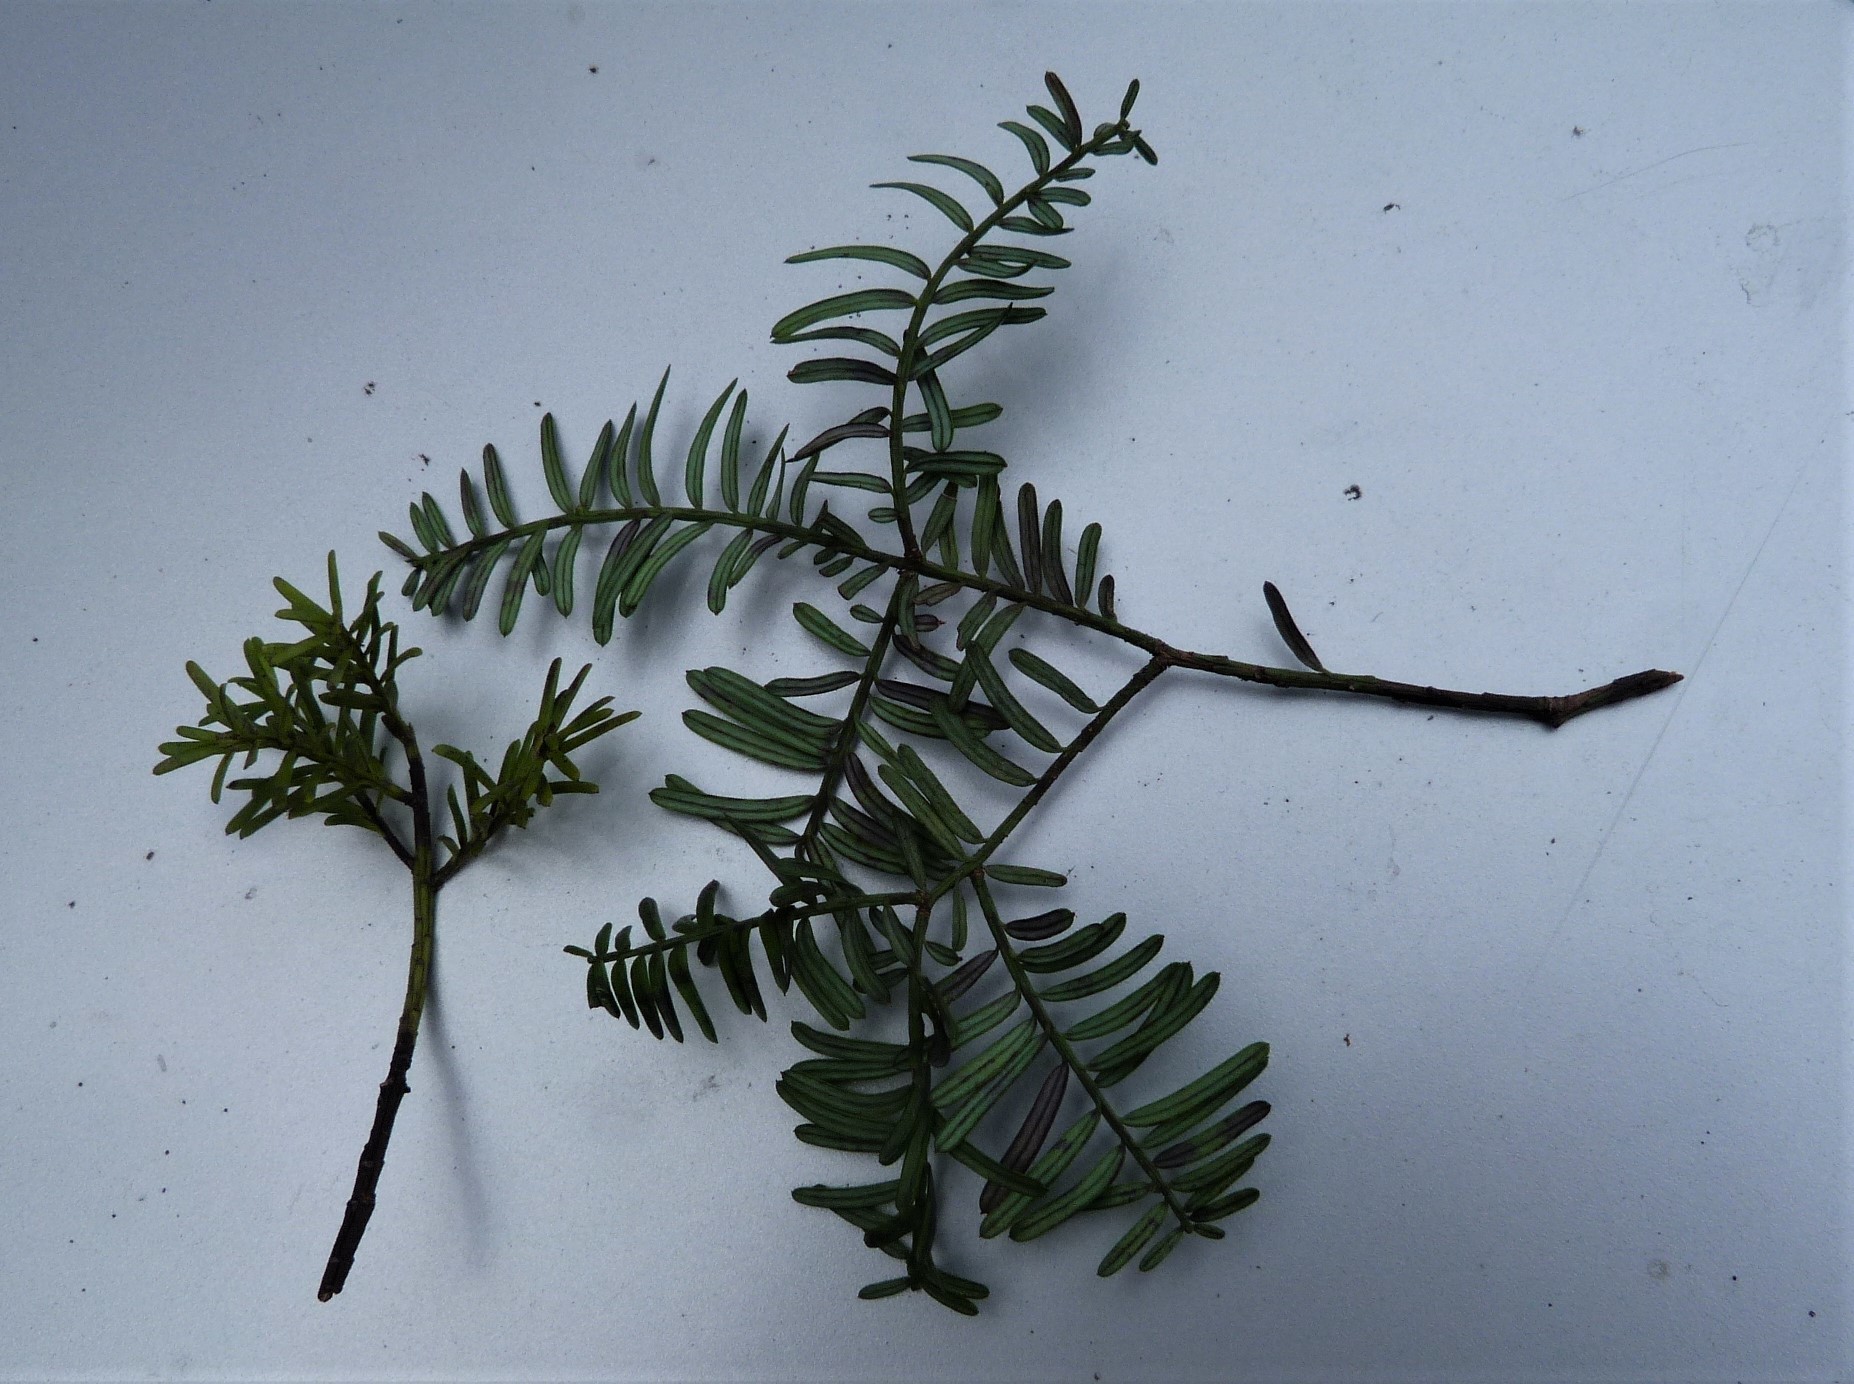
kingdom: Plantae
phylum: Tracheophyta
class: Pinopsida
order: Pinales
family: Podocarpaceae
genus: Prumnopitys
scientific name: Prumnopitys taxifolia
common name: Matai
